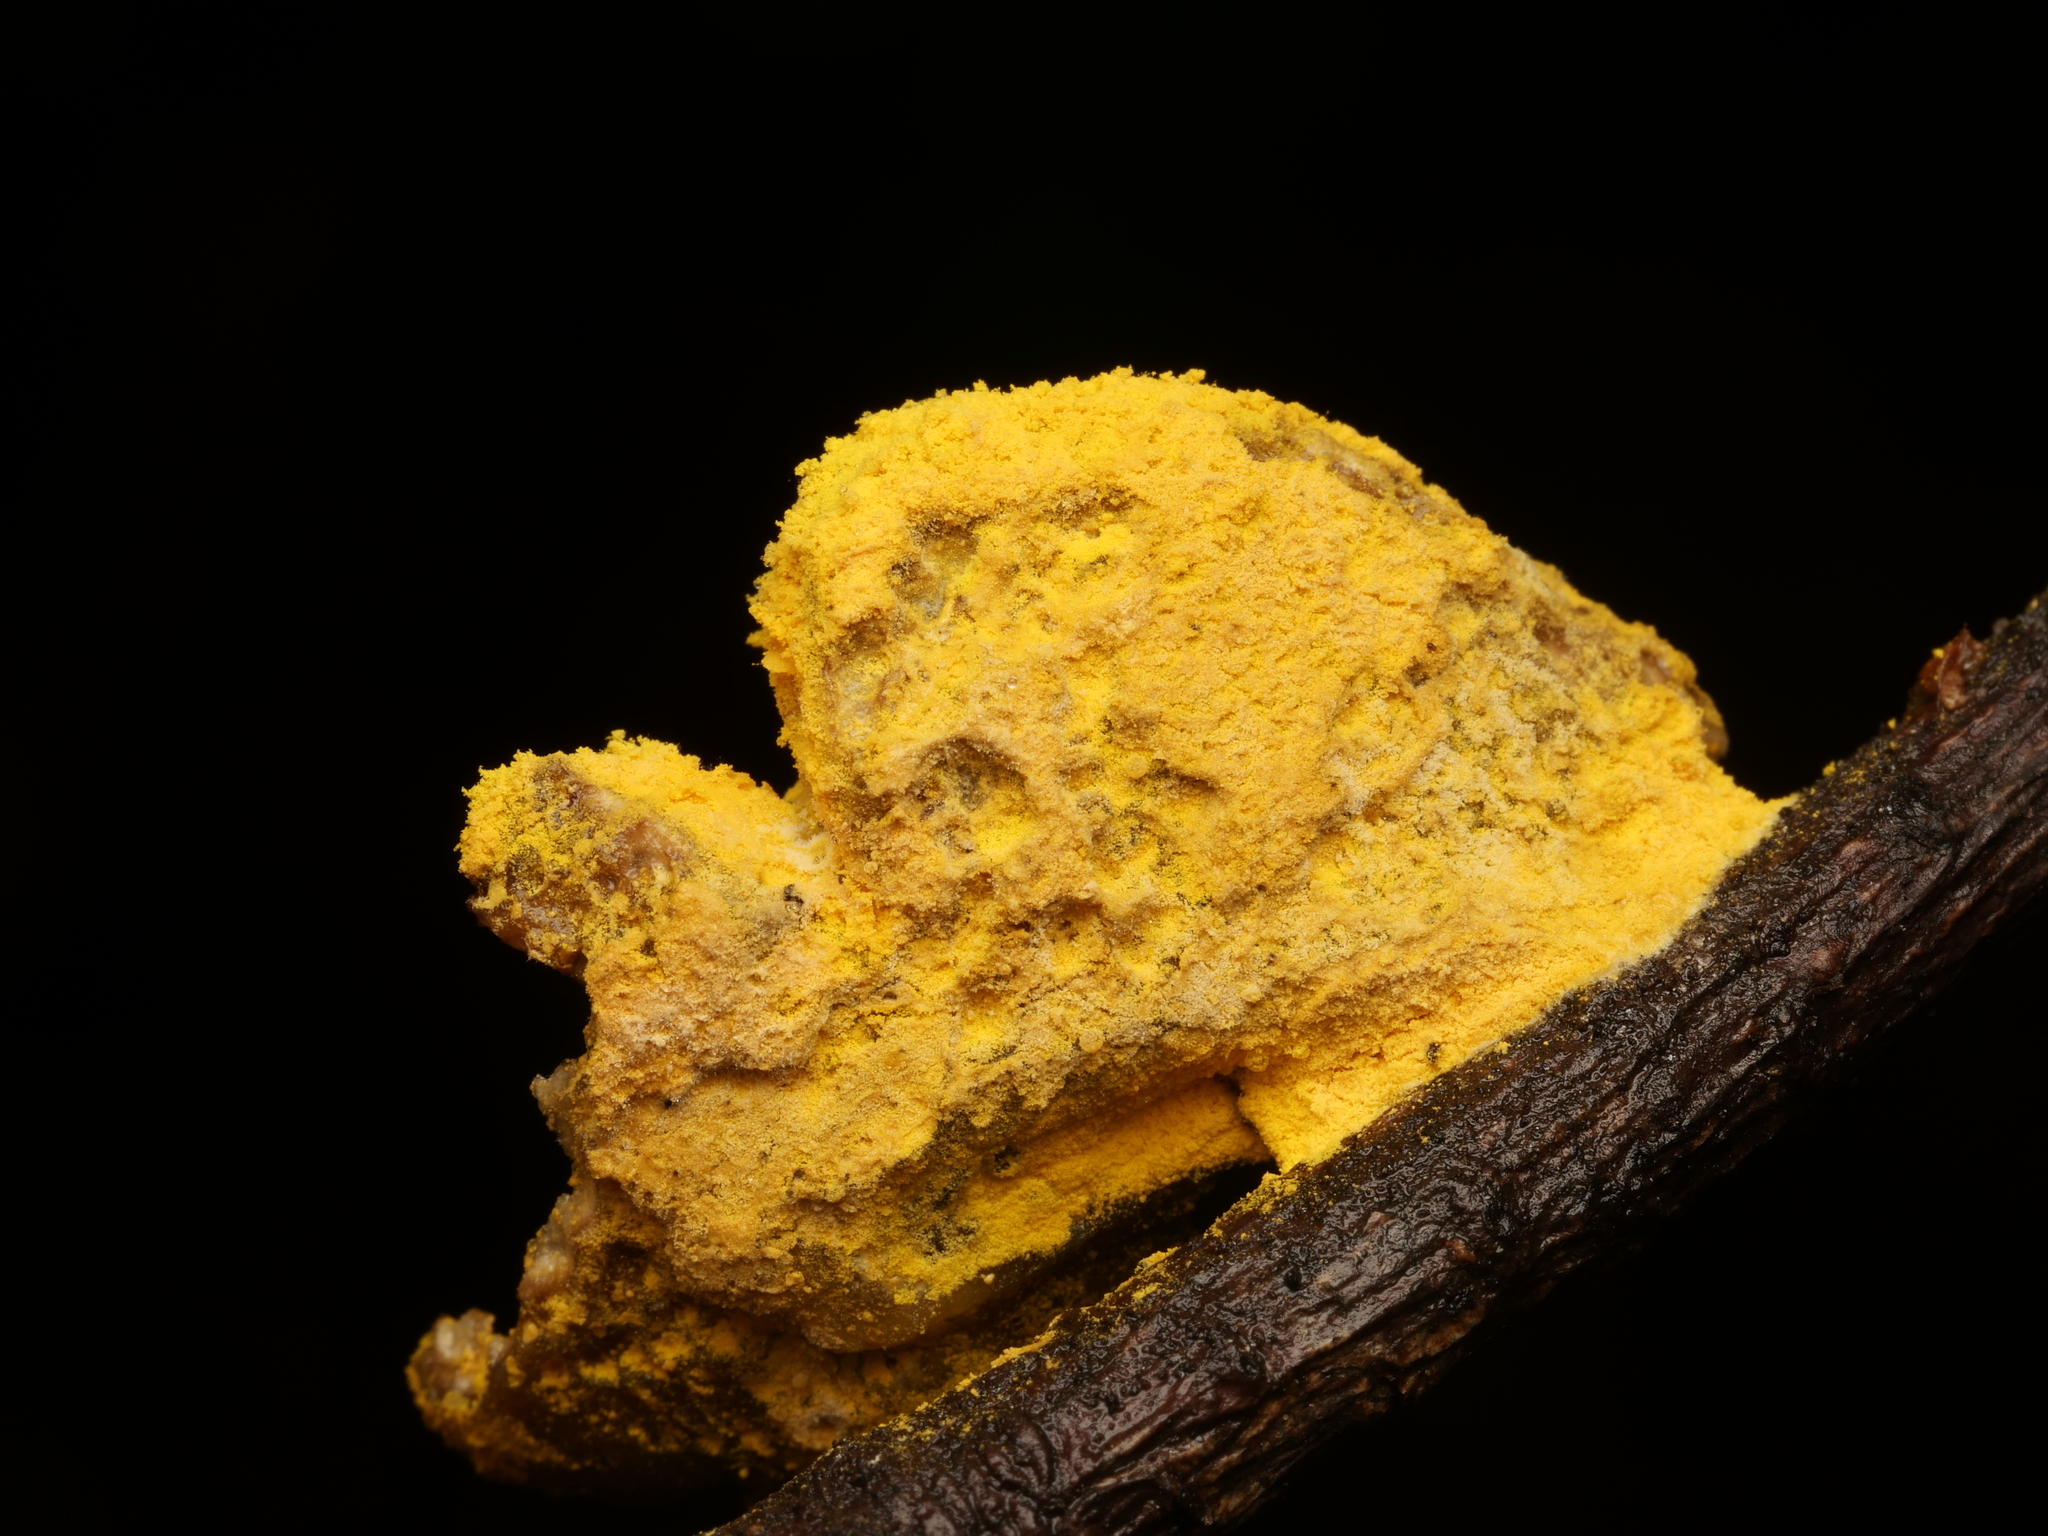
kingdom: Protozoa
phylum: Mycetozoa
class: Myxomycetes
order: Physarales
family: Physaraceae
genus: Fuligo
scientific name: Fuligo septica
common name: Dog vomit slime mold
